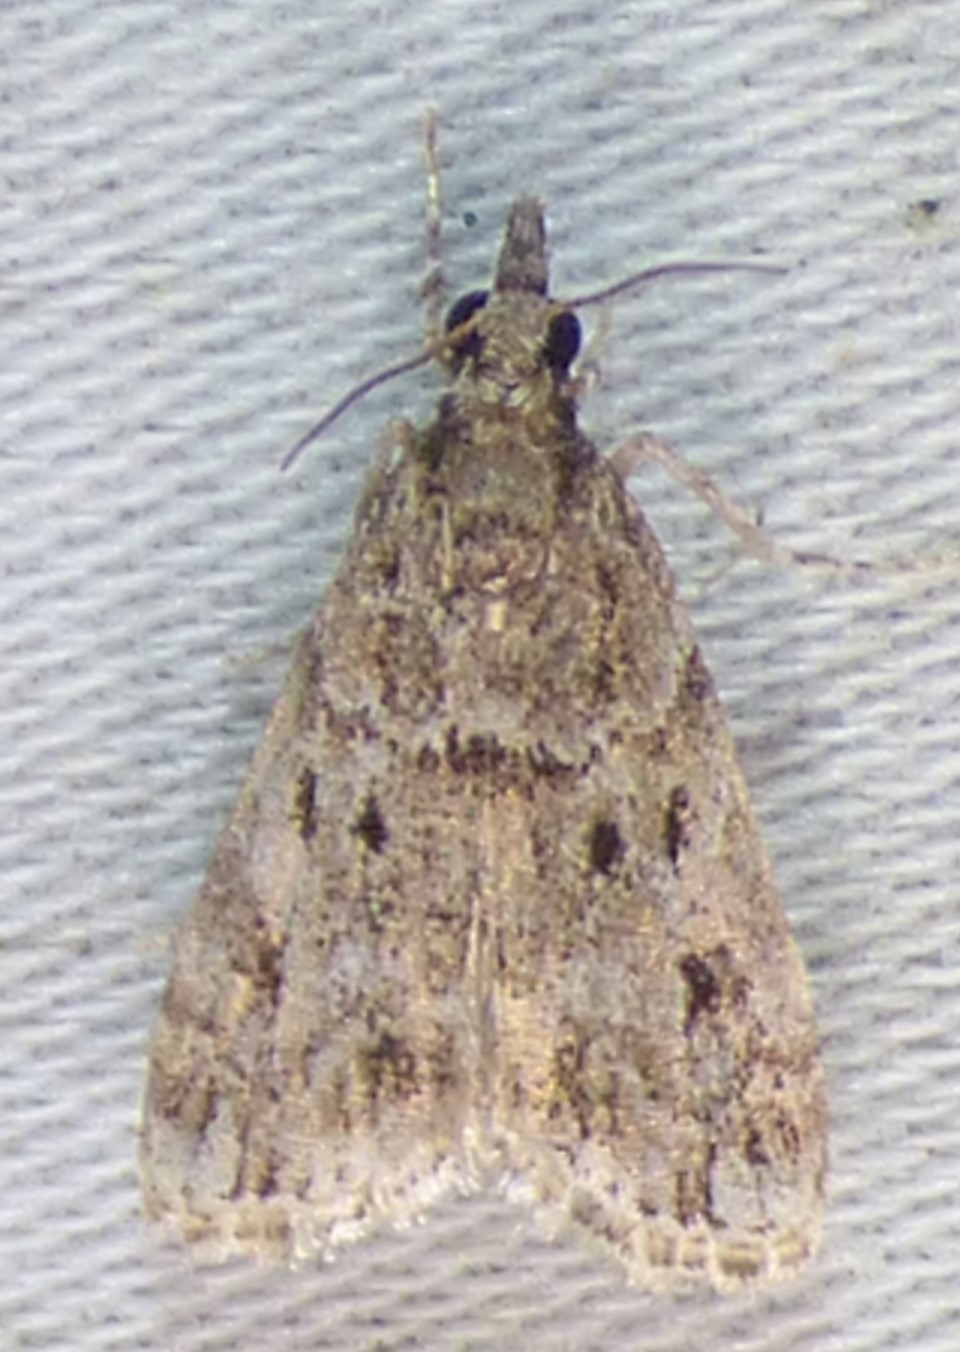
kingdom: Animalia
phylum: Arthropoda
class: Insecta
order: Lepidoptera
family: Crambidae
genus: Eudonia
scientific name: Eudonia heterosalis
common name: Mcdunnough's eudonia
